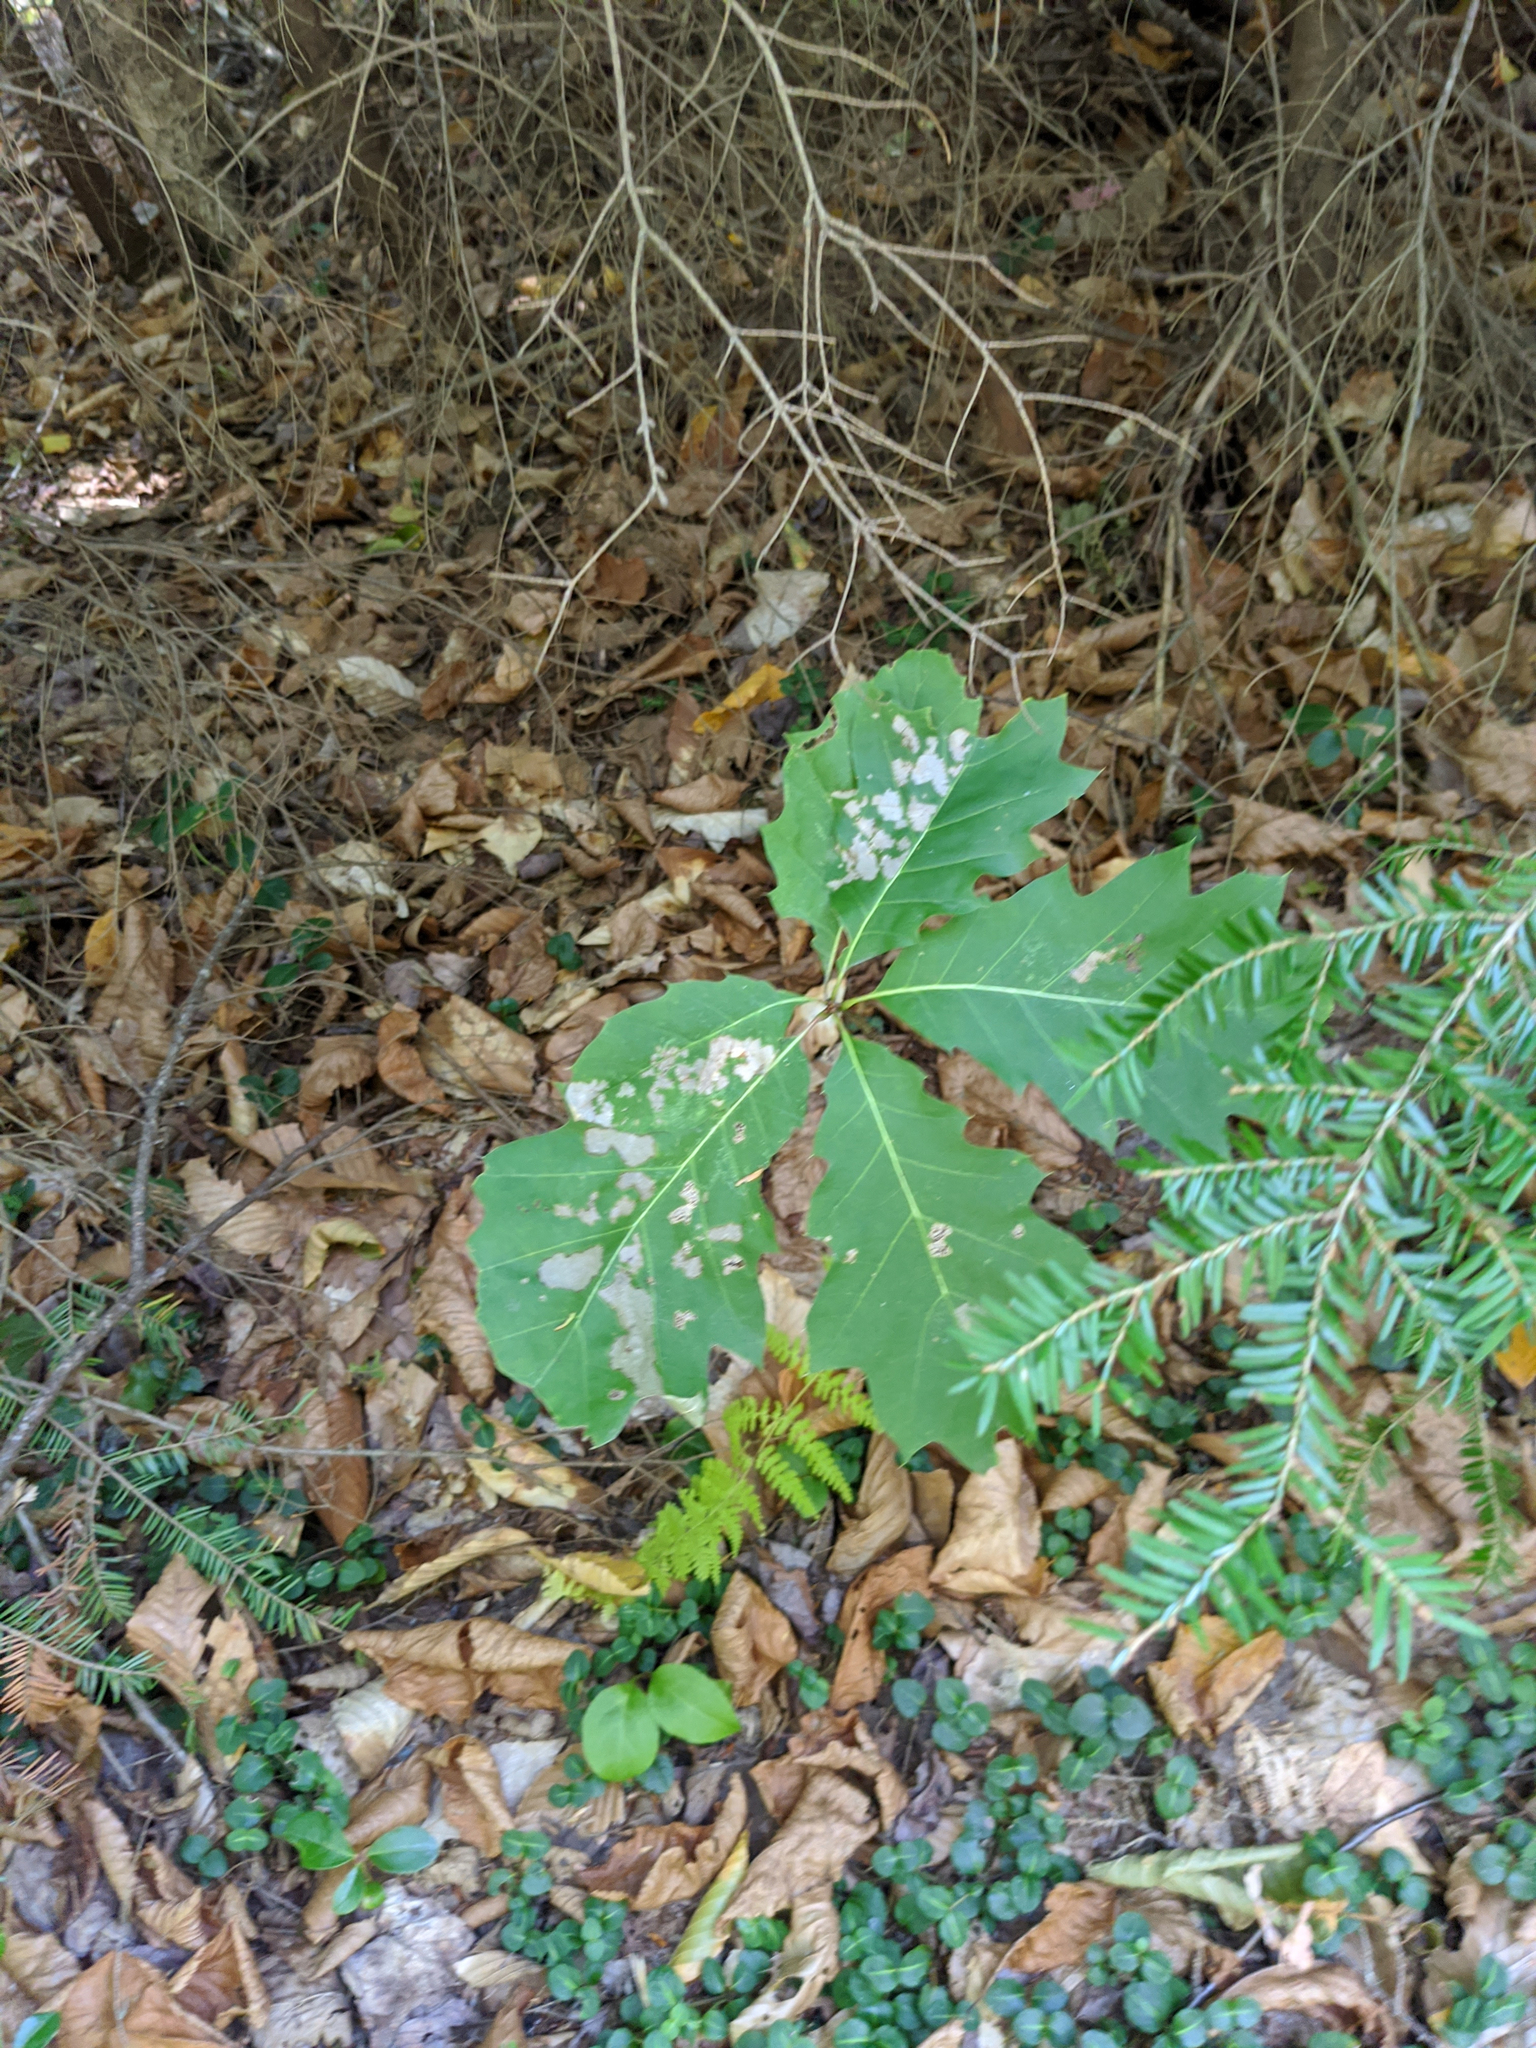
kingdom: Plantae
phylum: Tracheophyta
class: Magnoliopsida
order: Fagales
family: Fagaceae
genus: Quercus
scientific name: Quercus rubra
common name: Red oak
